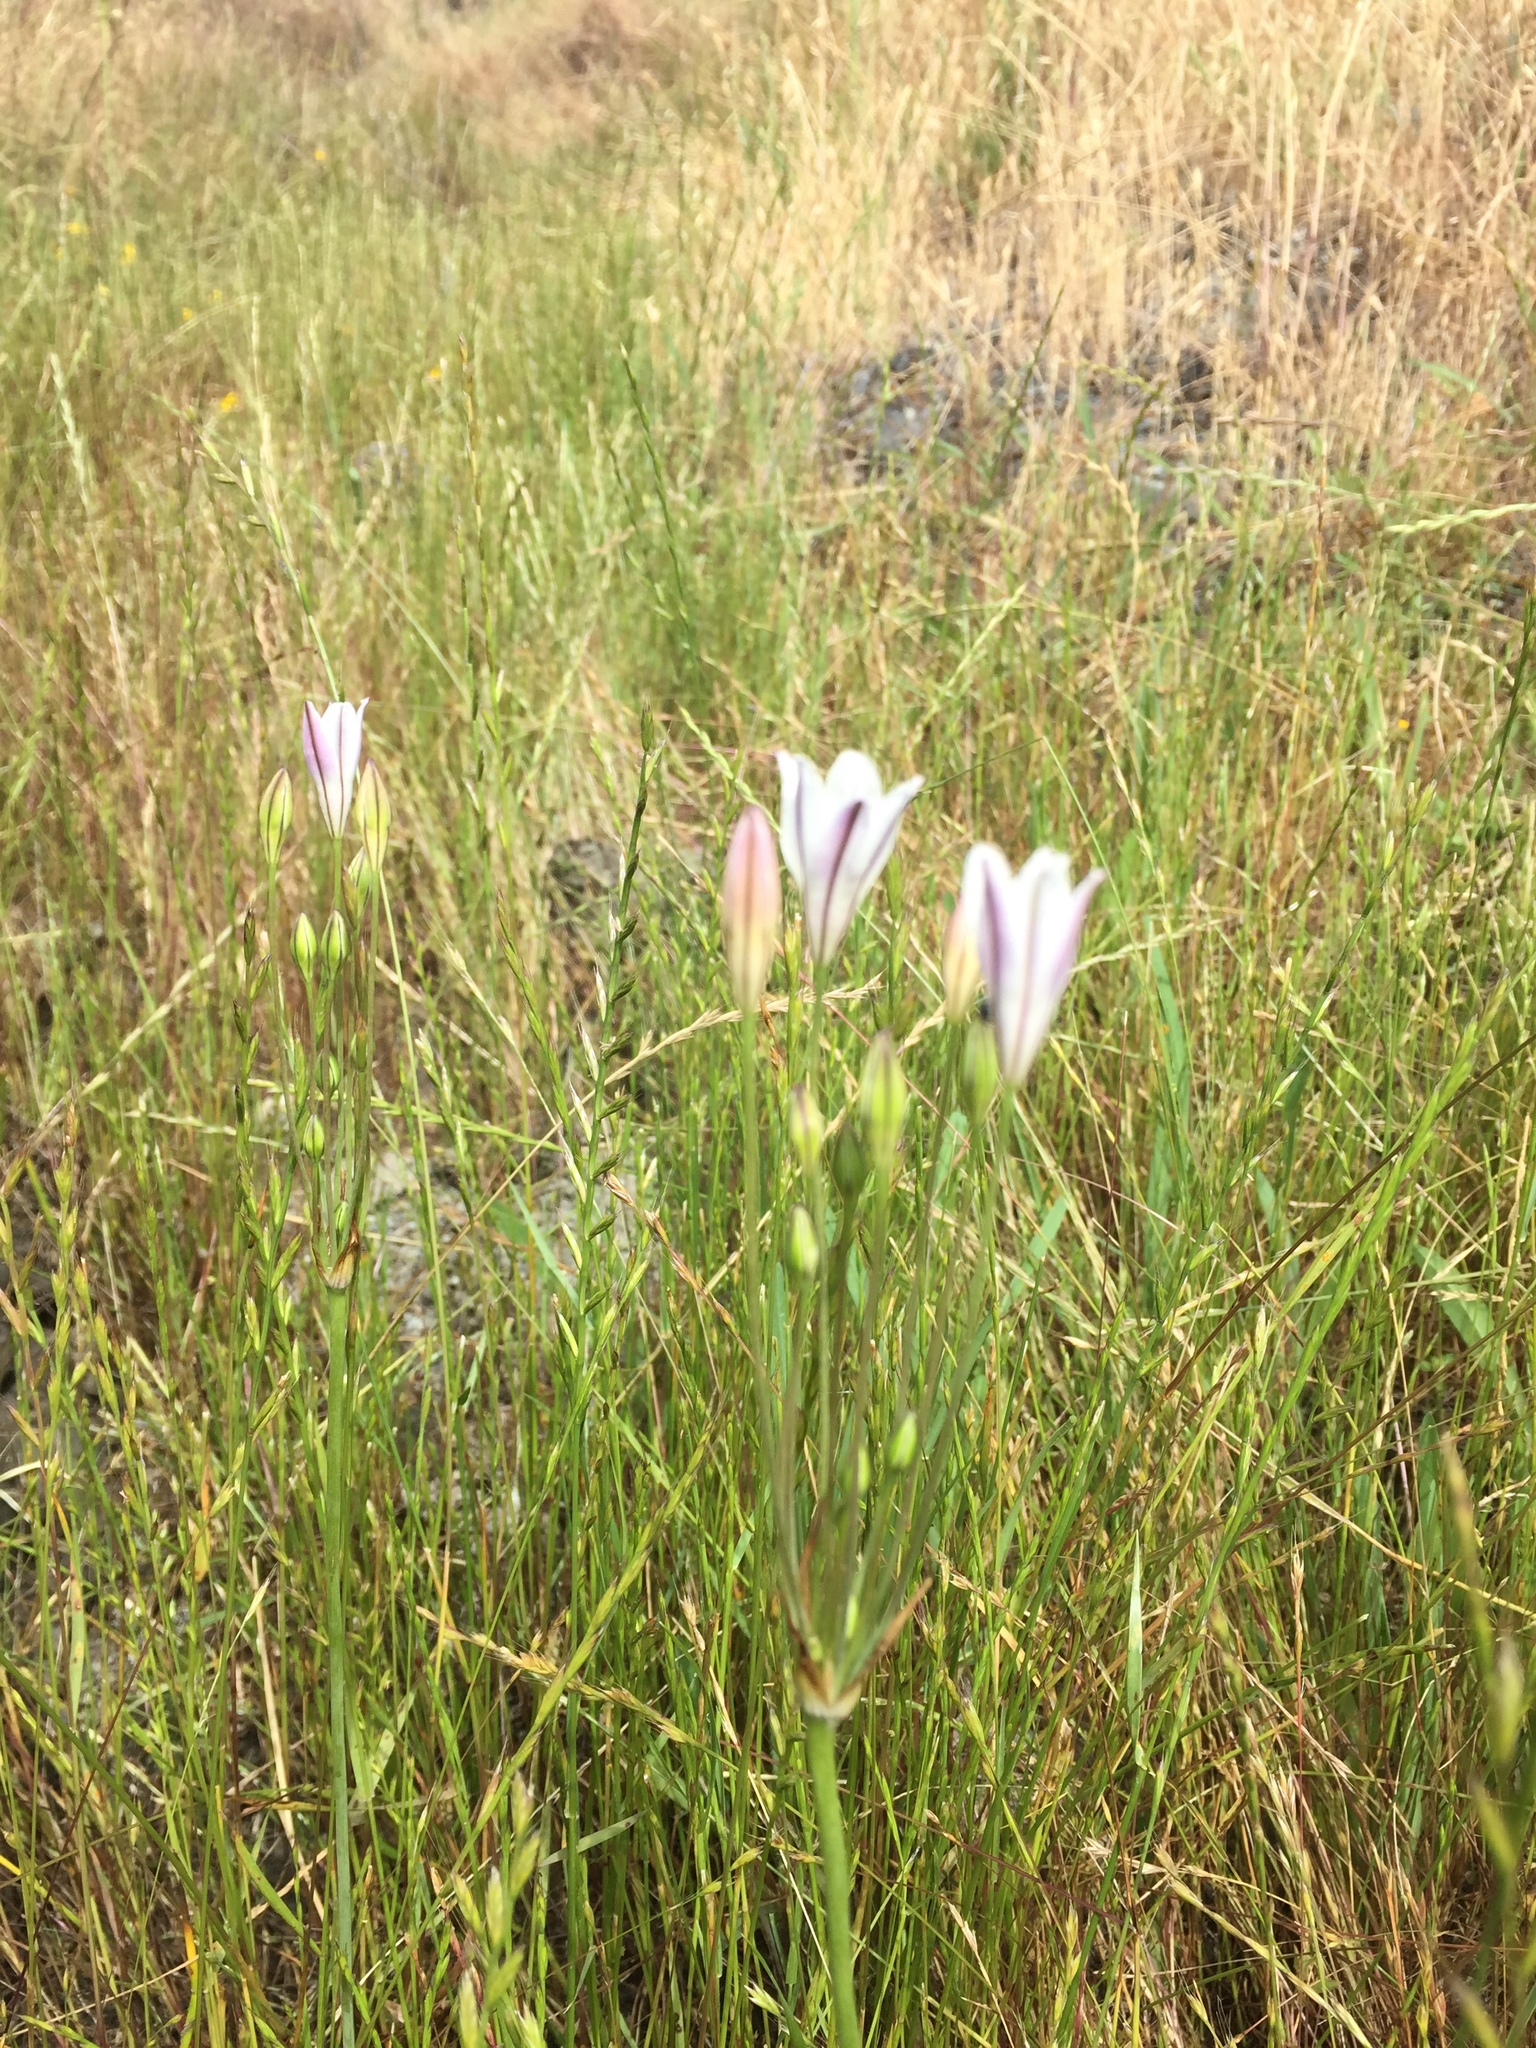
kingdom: Plantae
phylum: Tracheophyta
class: Liliopsida
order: Asparagales
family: Asparagaceae
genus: Triteleia
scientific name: Triteleia peduncularis
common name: Long-ray brodiaea
